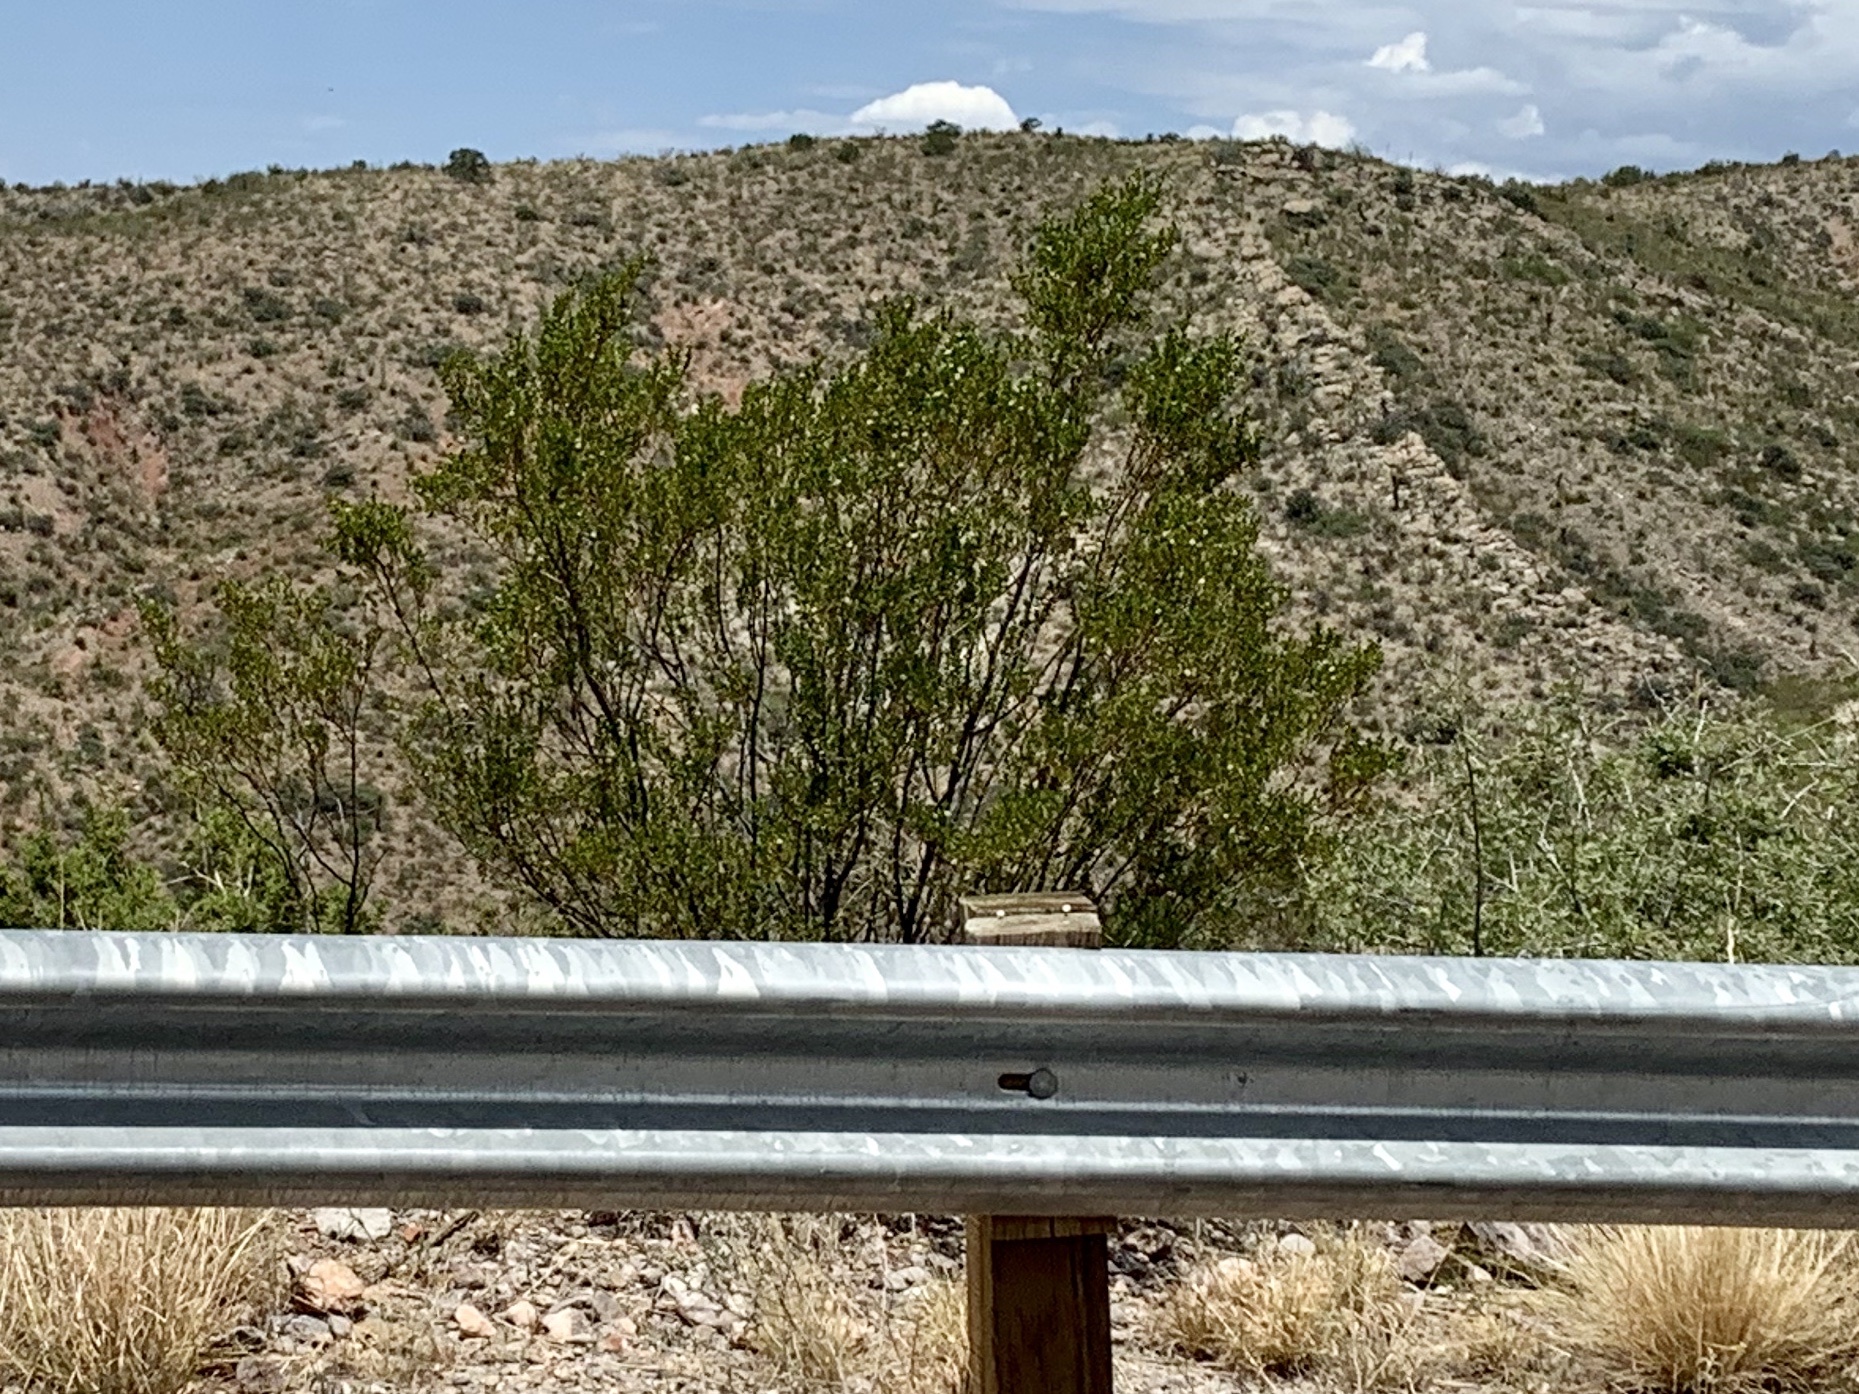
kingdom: Plantae
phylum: Tracheophyta
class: Magnoliopsida
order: Zygophyllales
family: Zygophyllaceae
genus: Larrea
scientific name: Larrea tridentata
